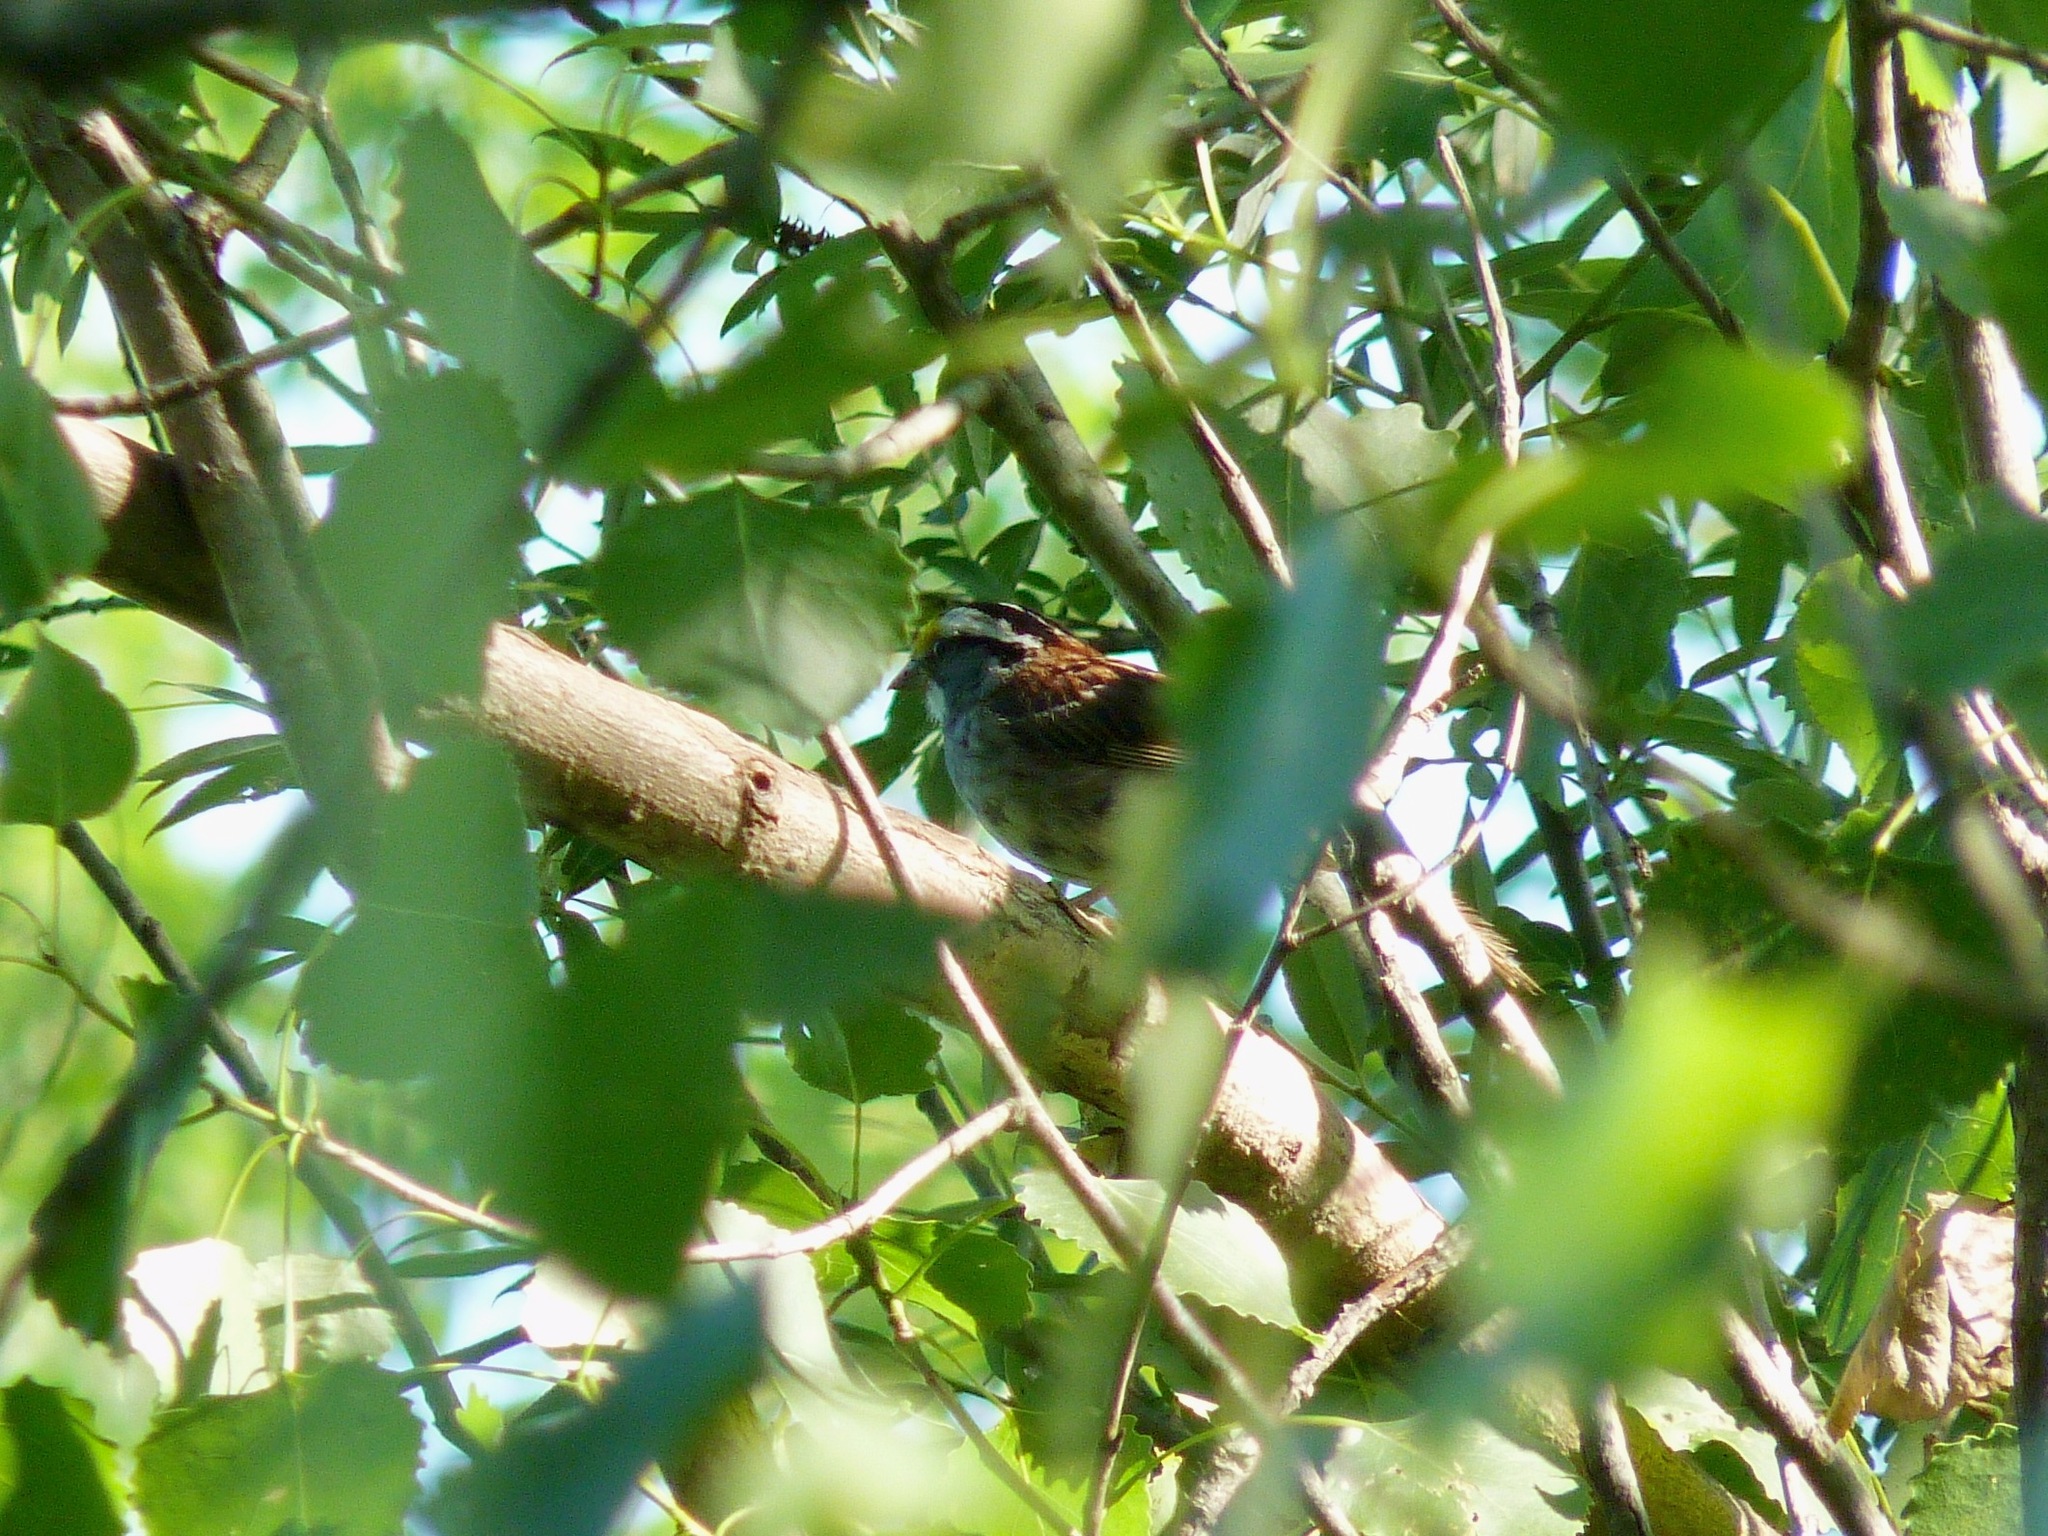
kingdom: Animalia
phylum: Chordata
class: Aves
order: Passeriformes
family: Passerellidae
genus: Zonotrichia
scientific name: Zonotrichia albicollis
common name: White-throated sparrow
